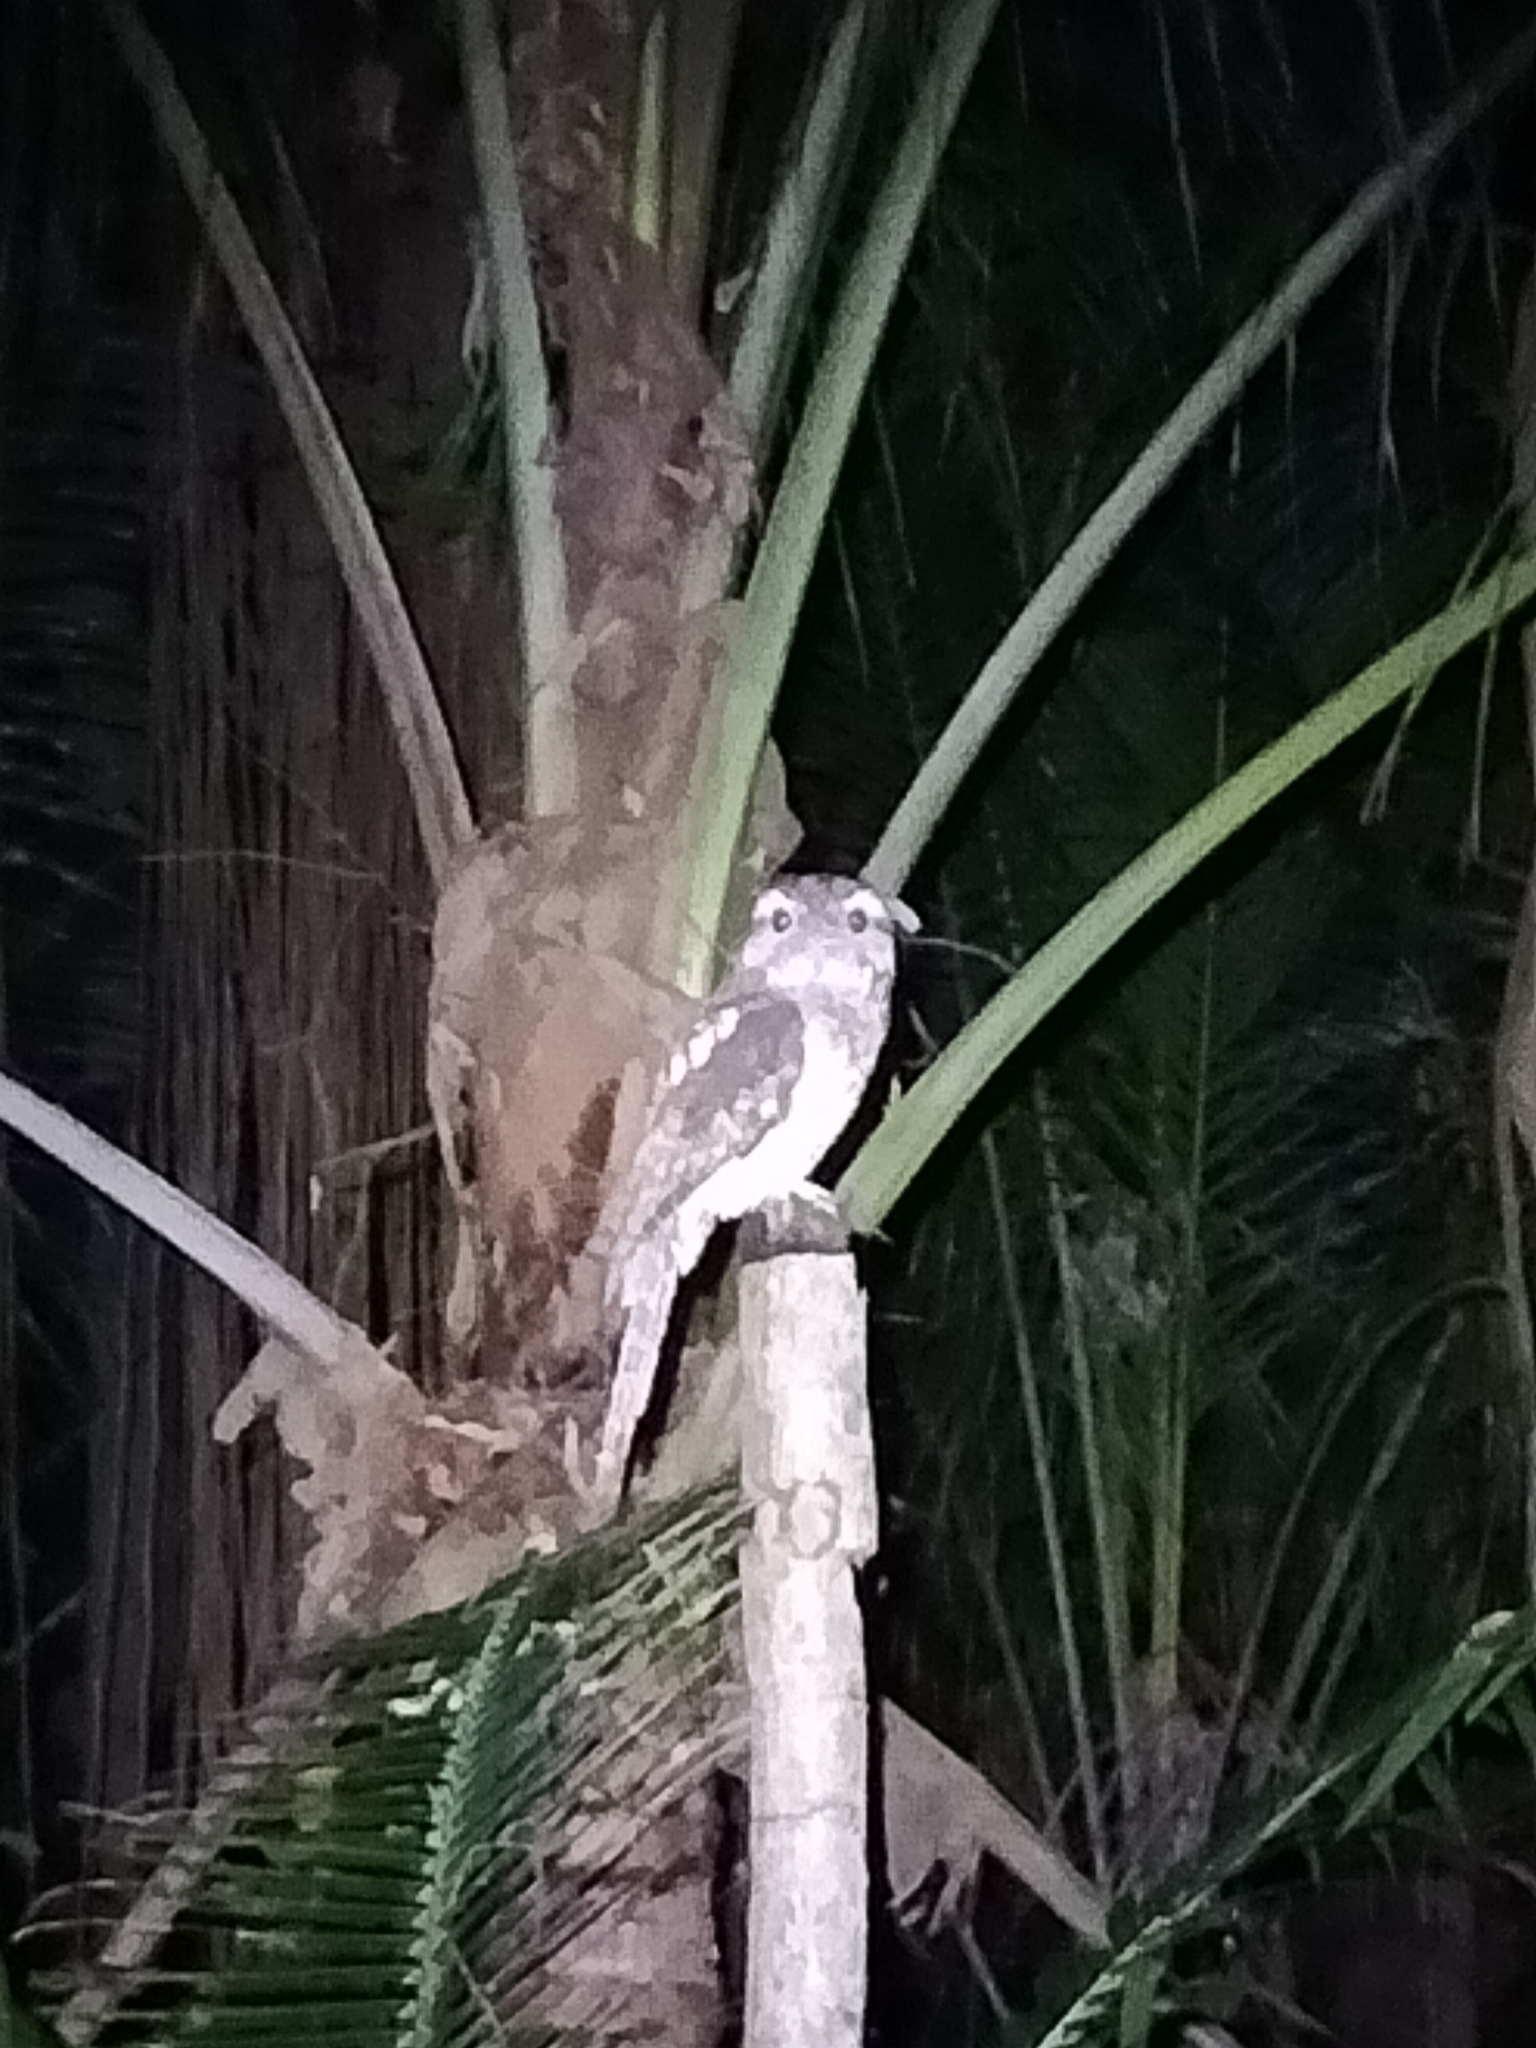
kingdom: Animalia
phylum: Chordata
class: Aves
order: Caprimulgiformes
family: Podargidae
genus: Podargus
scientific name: Podargus papuensis
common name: Papuan frogmouth
